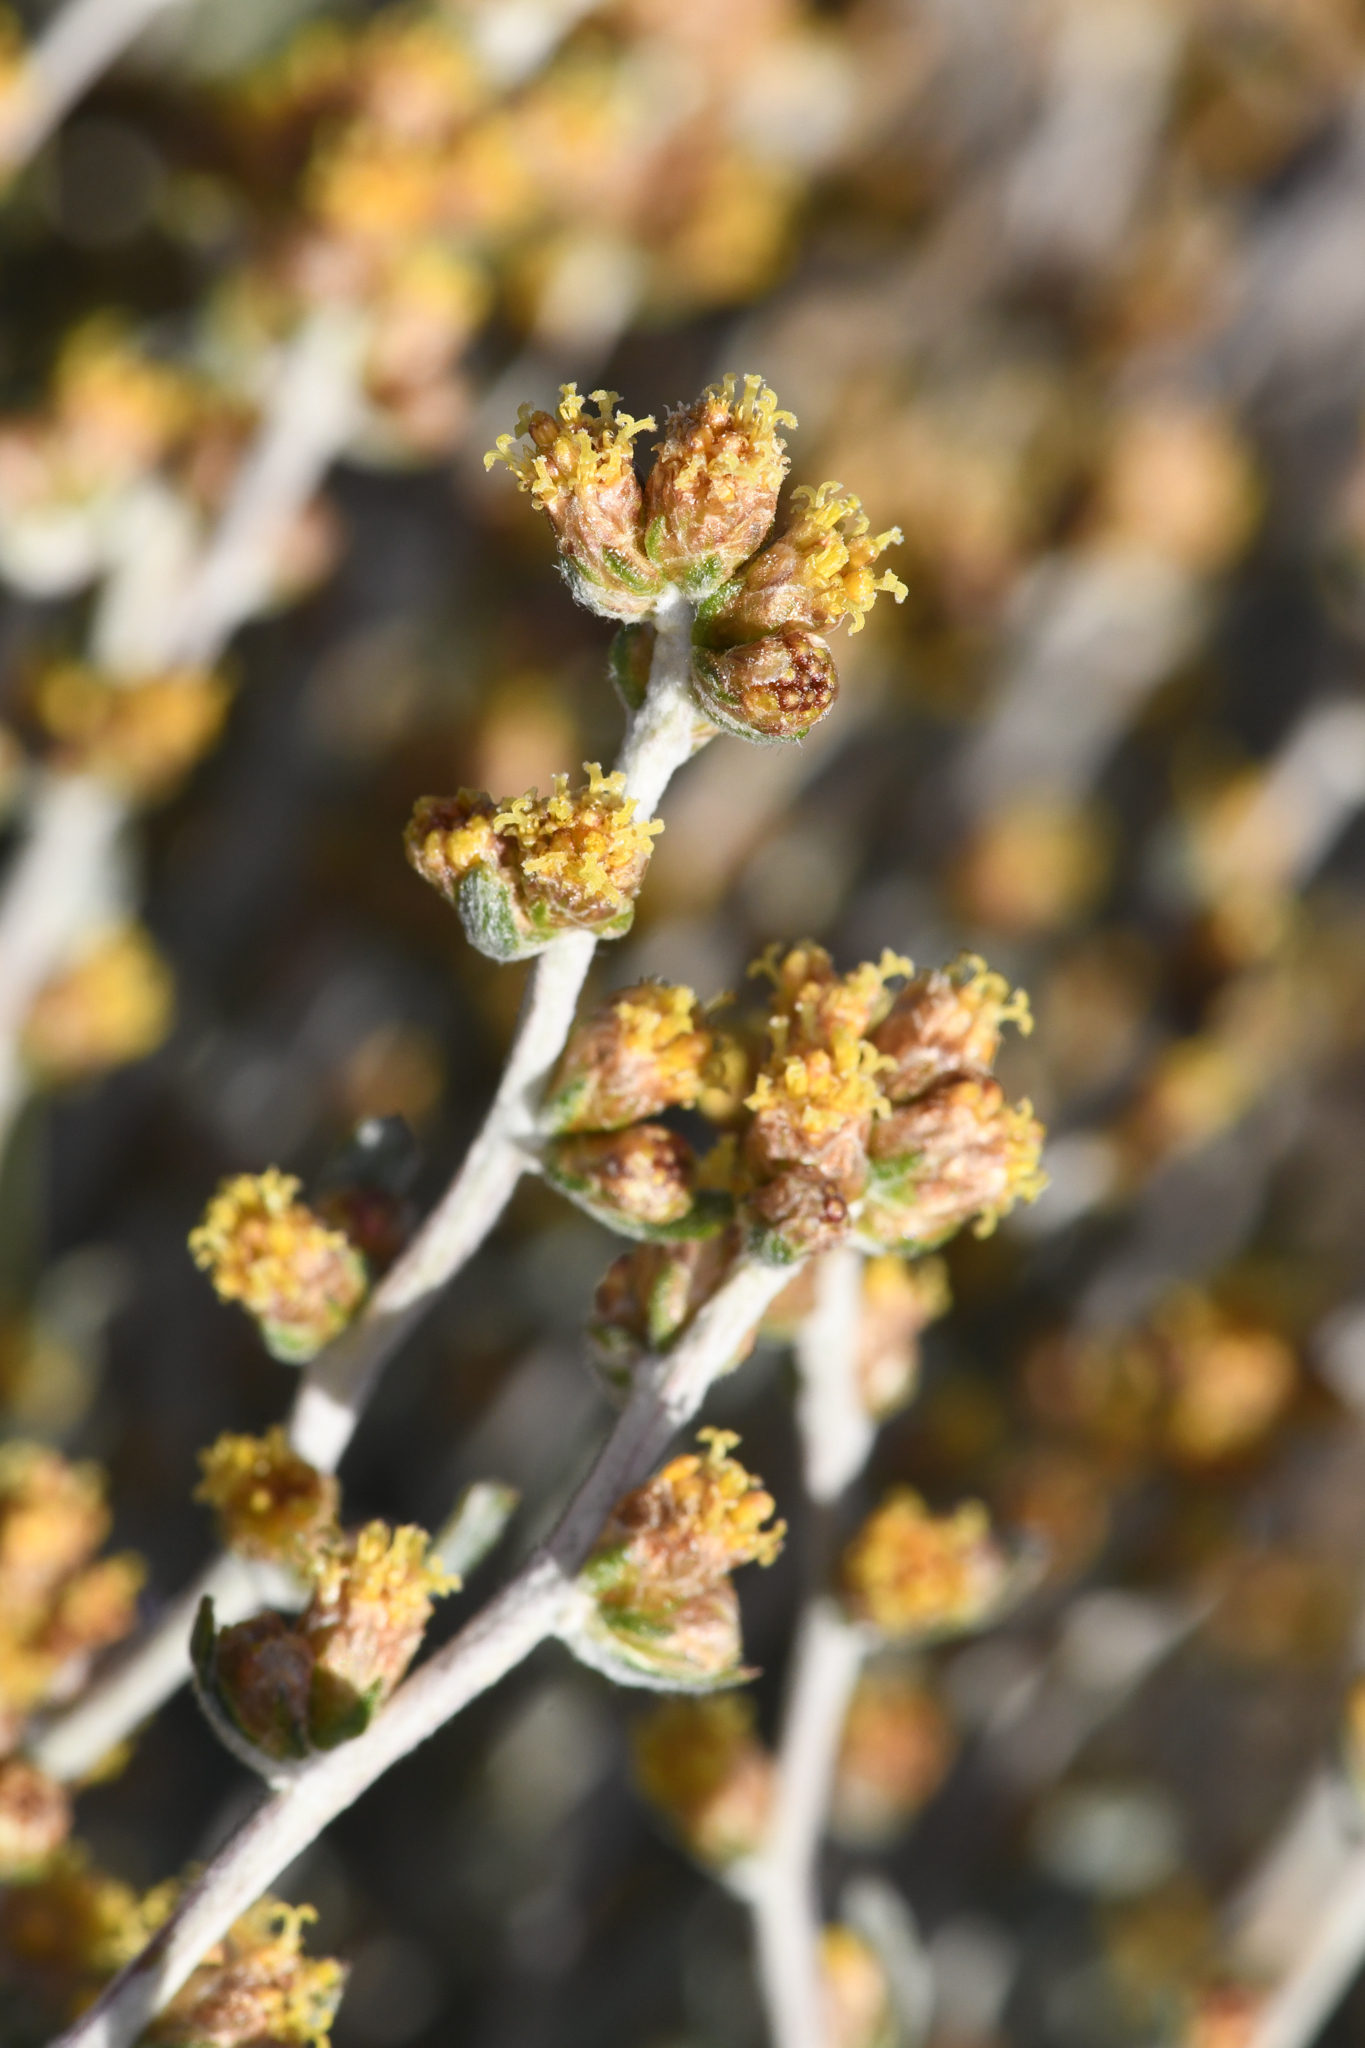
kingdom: Plantae
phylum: Tracheophyta
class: Magnoliopsida
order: Asterales
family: Asteraceae
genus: Artemisia
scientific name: Artemisia rothrockii
